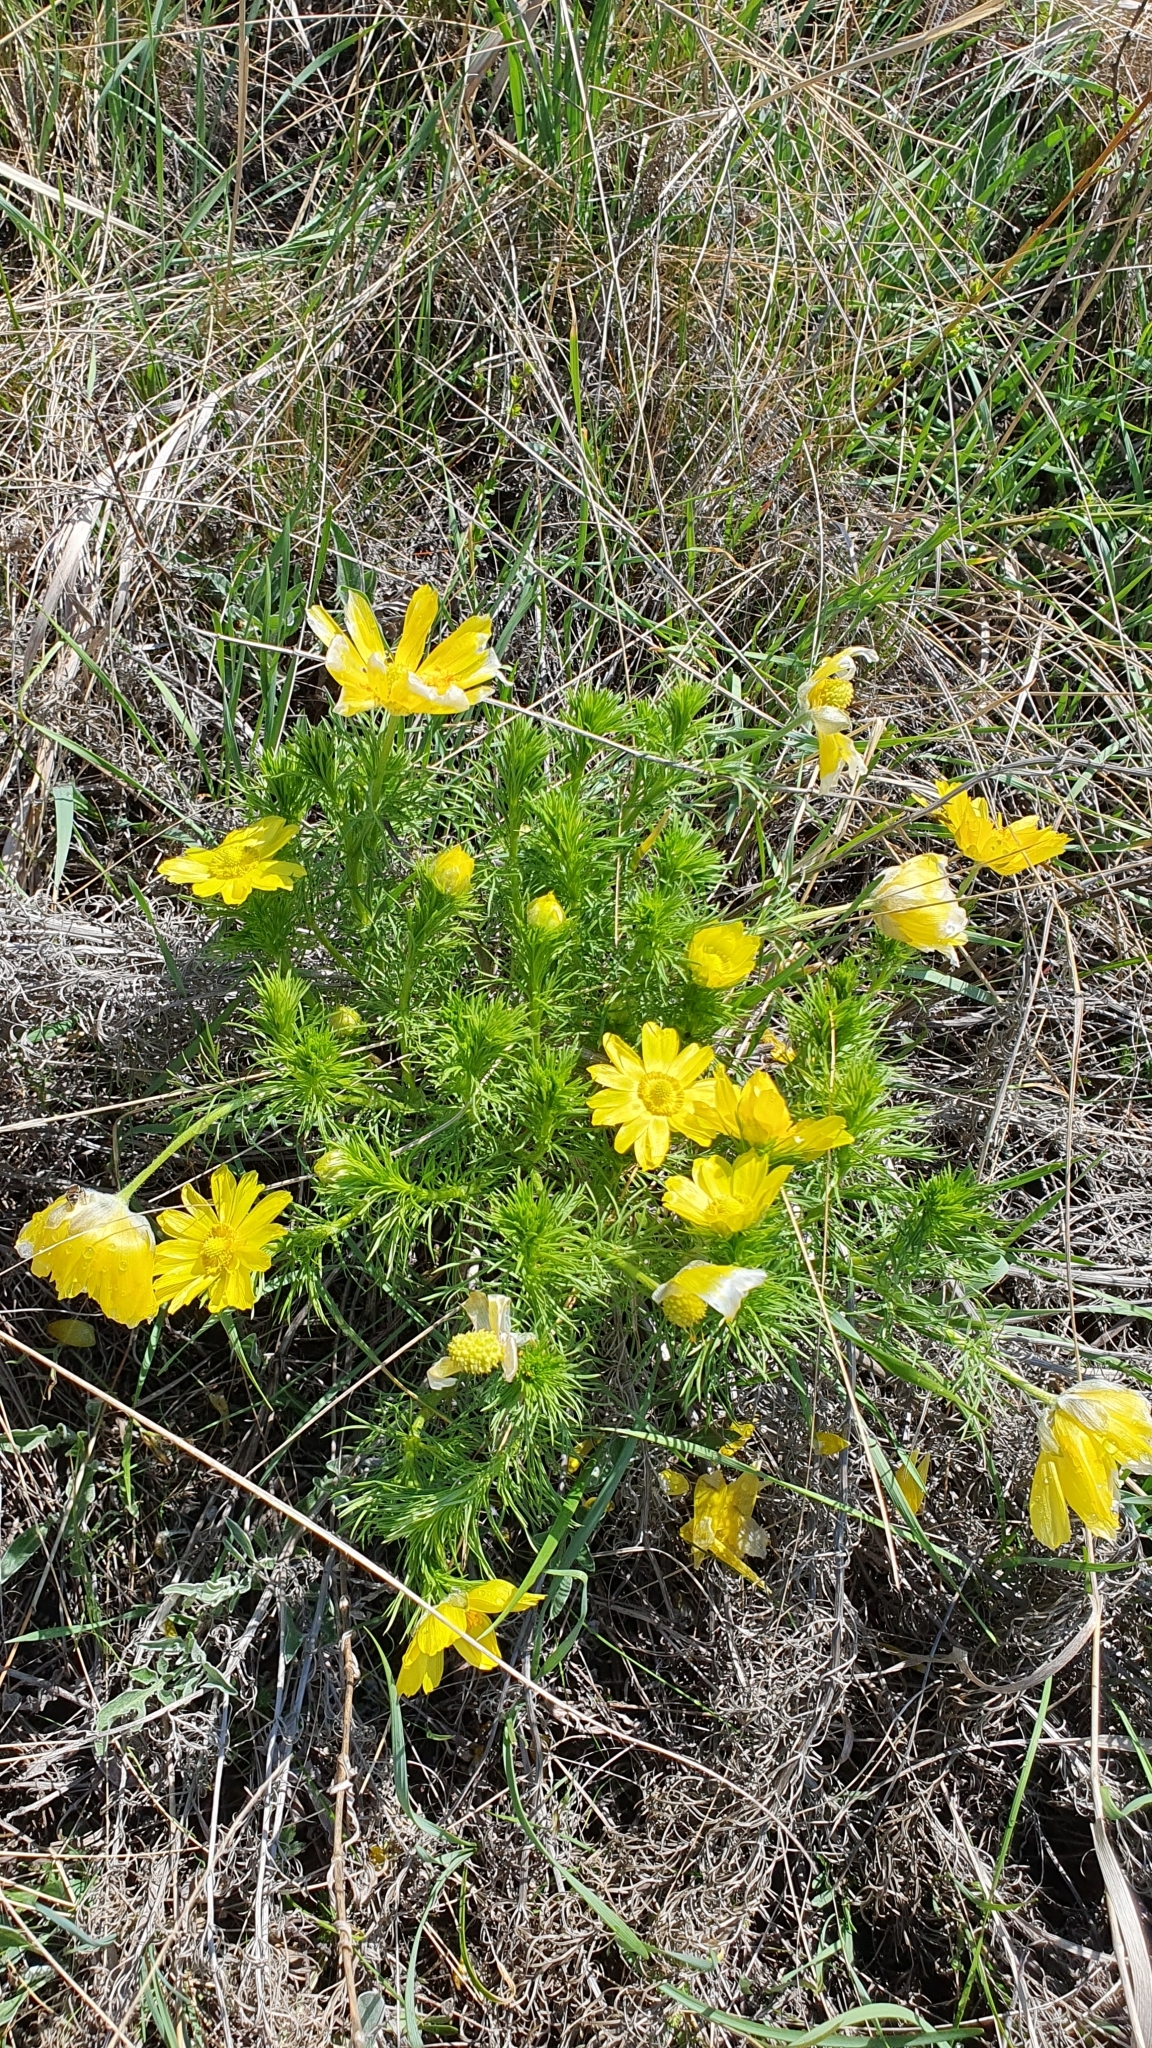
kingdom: Plantae
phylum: Tracheophyta
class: Magnoliopsida
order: Ranunculales
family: Ranunculaceae
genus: Adonis
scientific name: Adonis vernalis
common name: Yellow pheasants-eye
